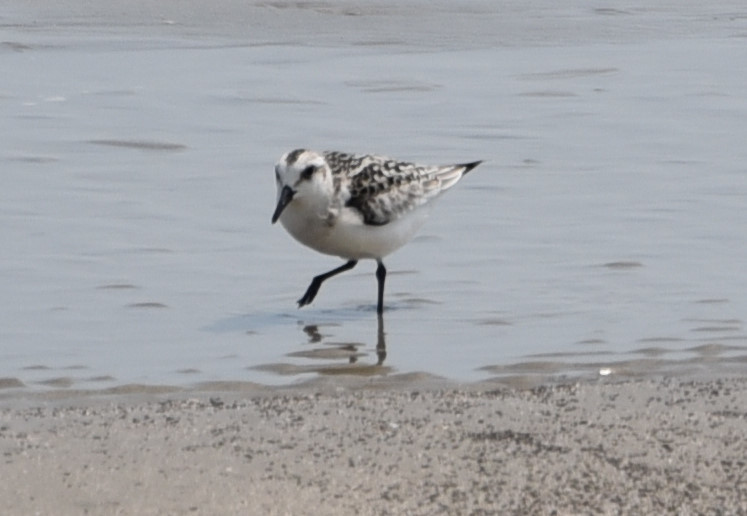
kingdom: Animalia
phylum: Chordata
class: Aves
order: Charadriiformes
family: Scolopacidae
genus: Calidris
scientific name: Calidris alba
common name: Sanderling
